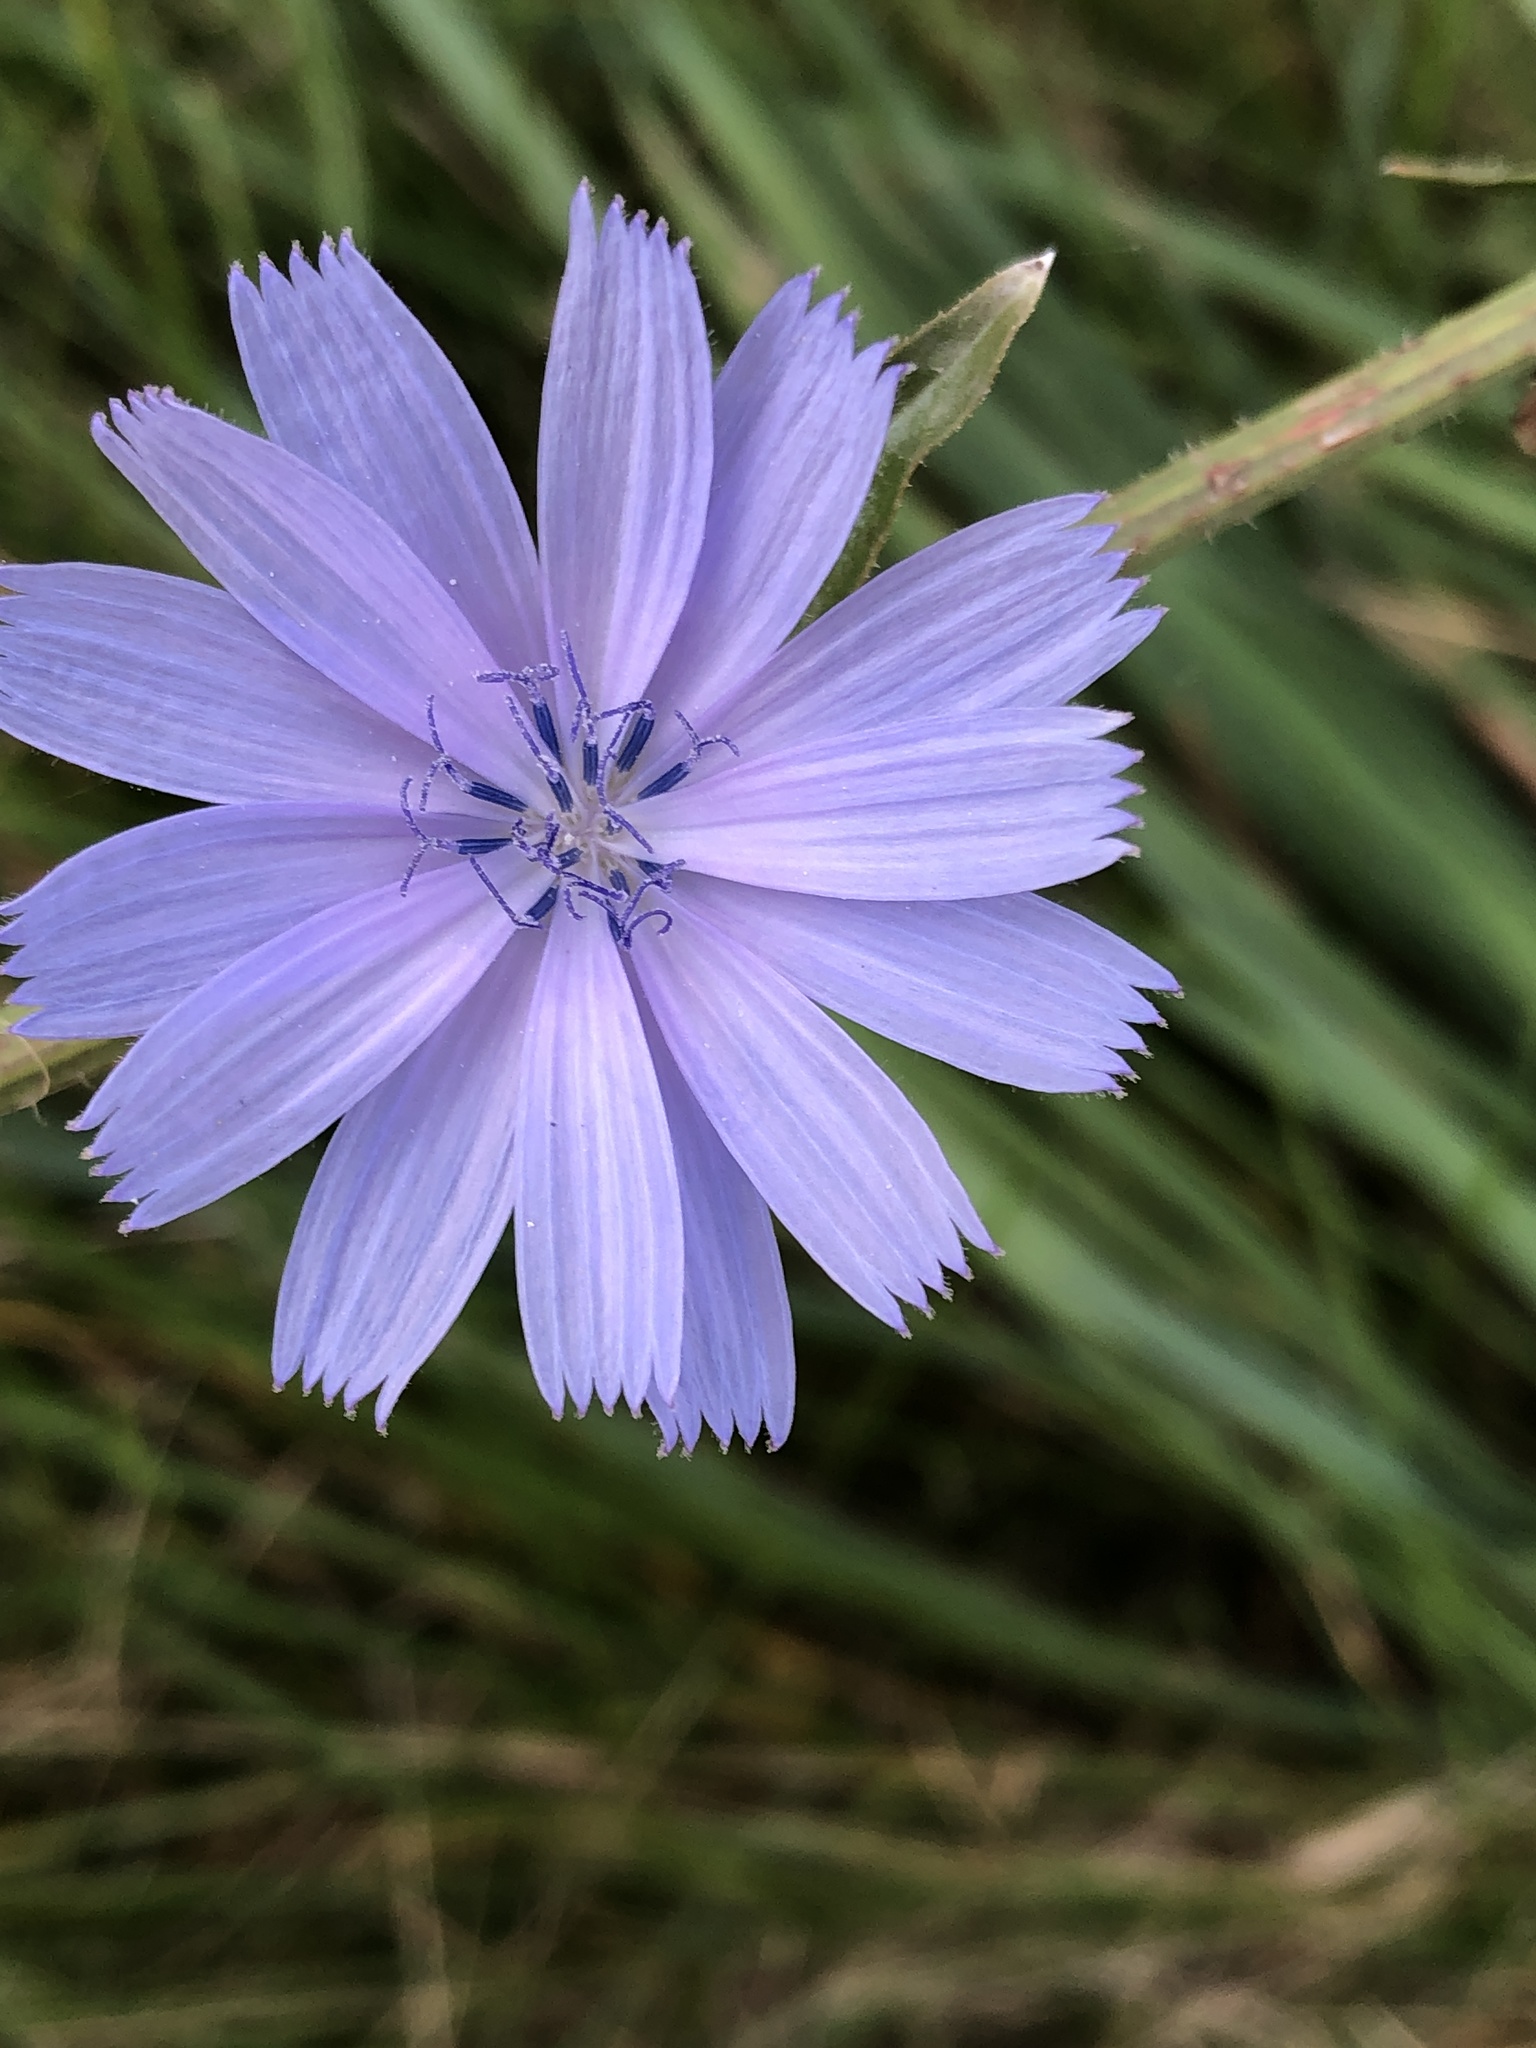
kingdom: Plantae
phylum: Tracheophyta
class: Magnoliopsida
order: Asterales
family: Asteraceae
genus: Cichorium
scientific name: Cichorium intybus
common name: Chicory
